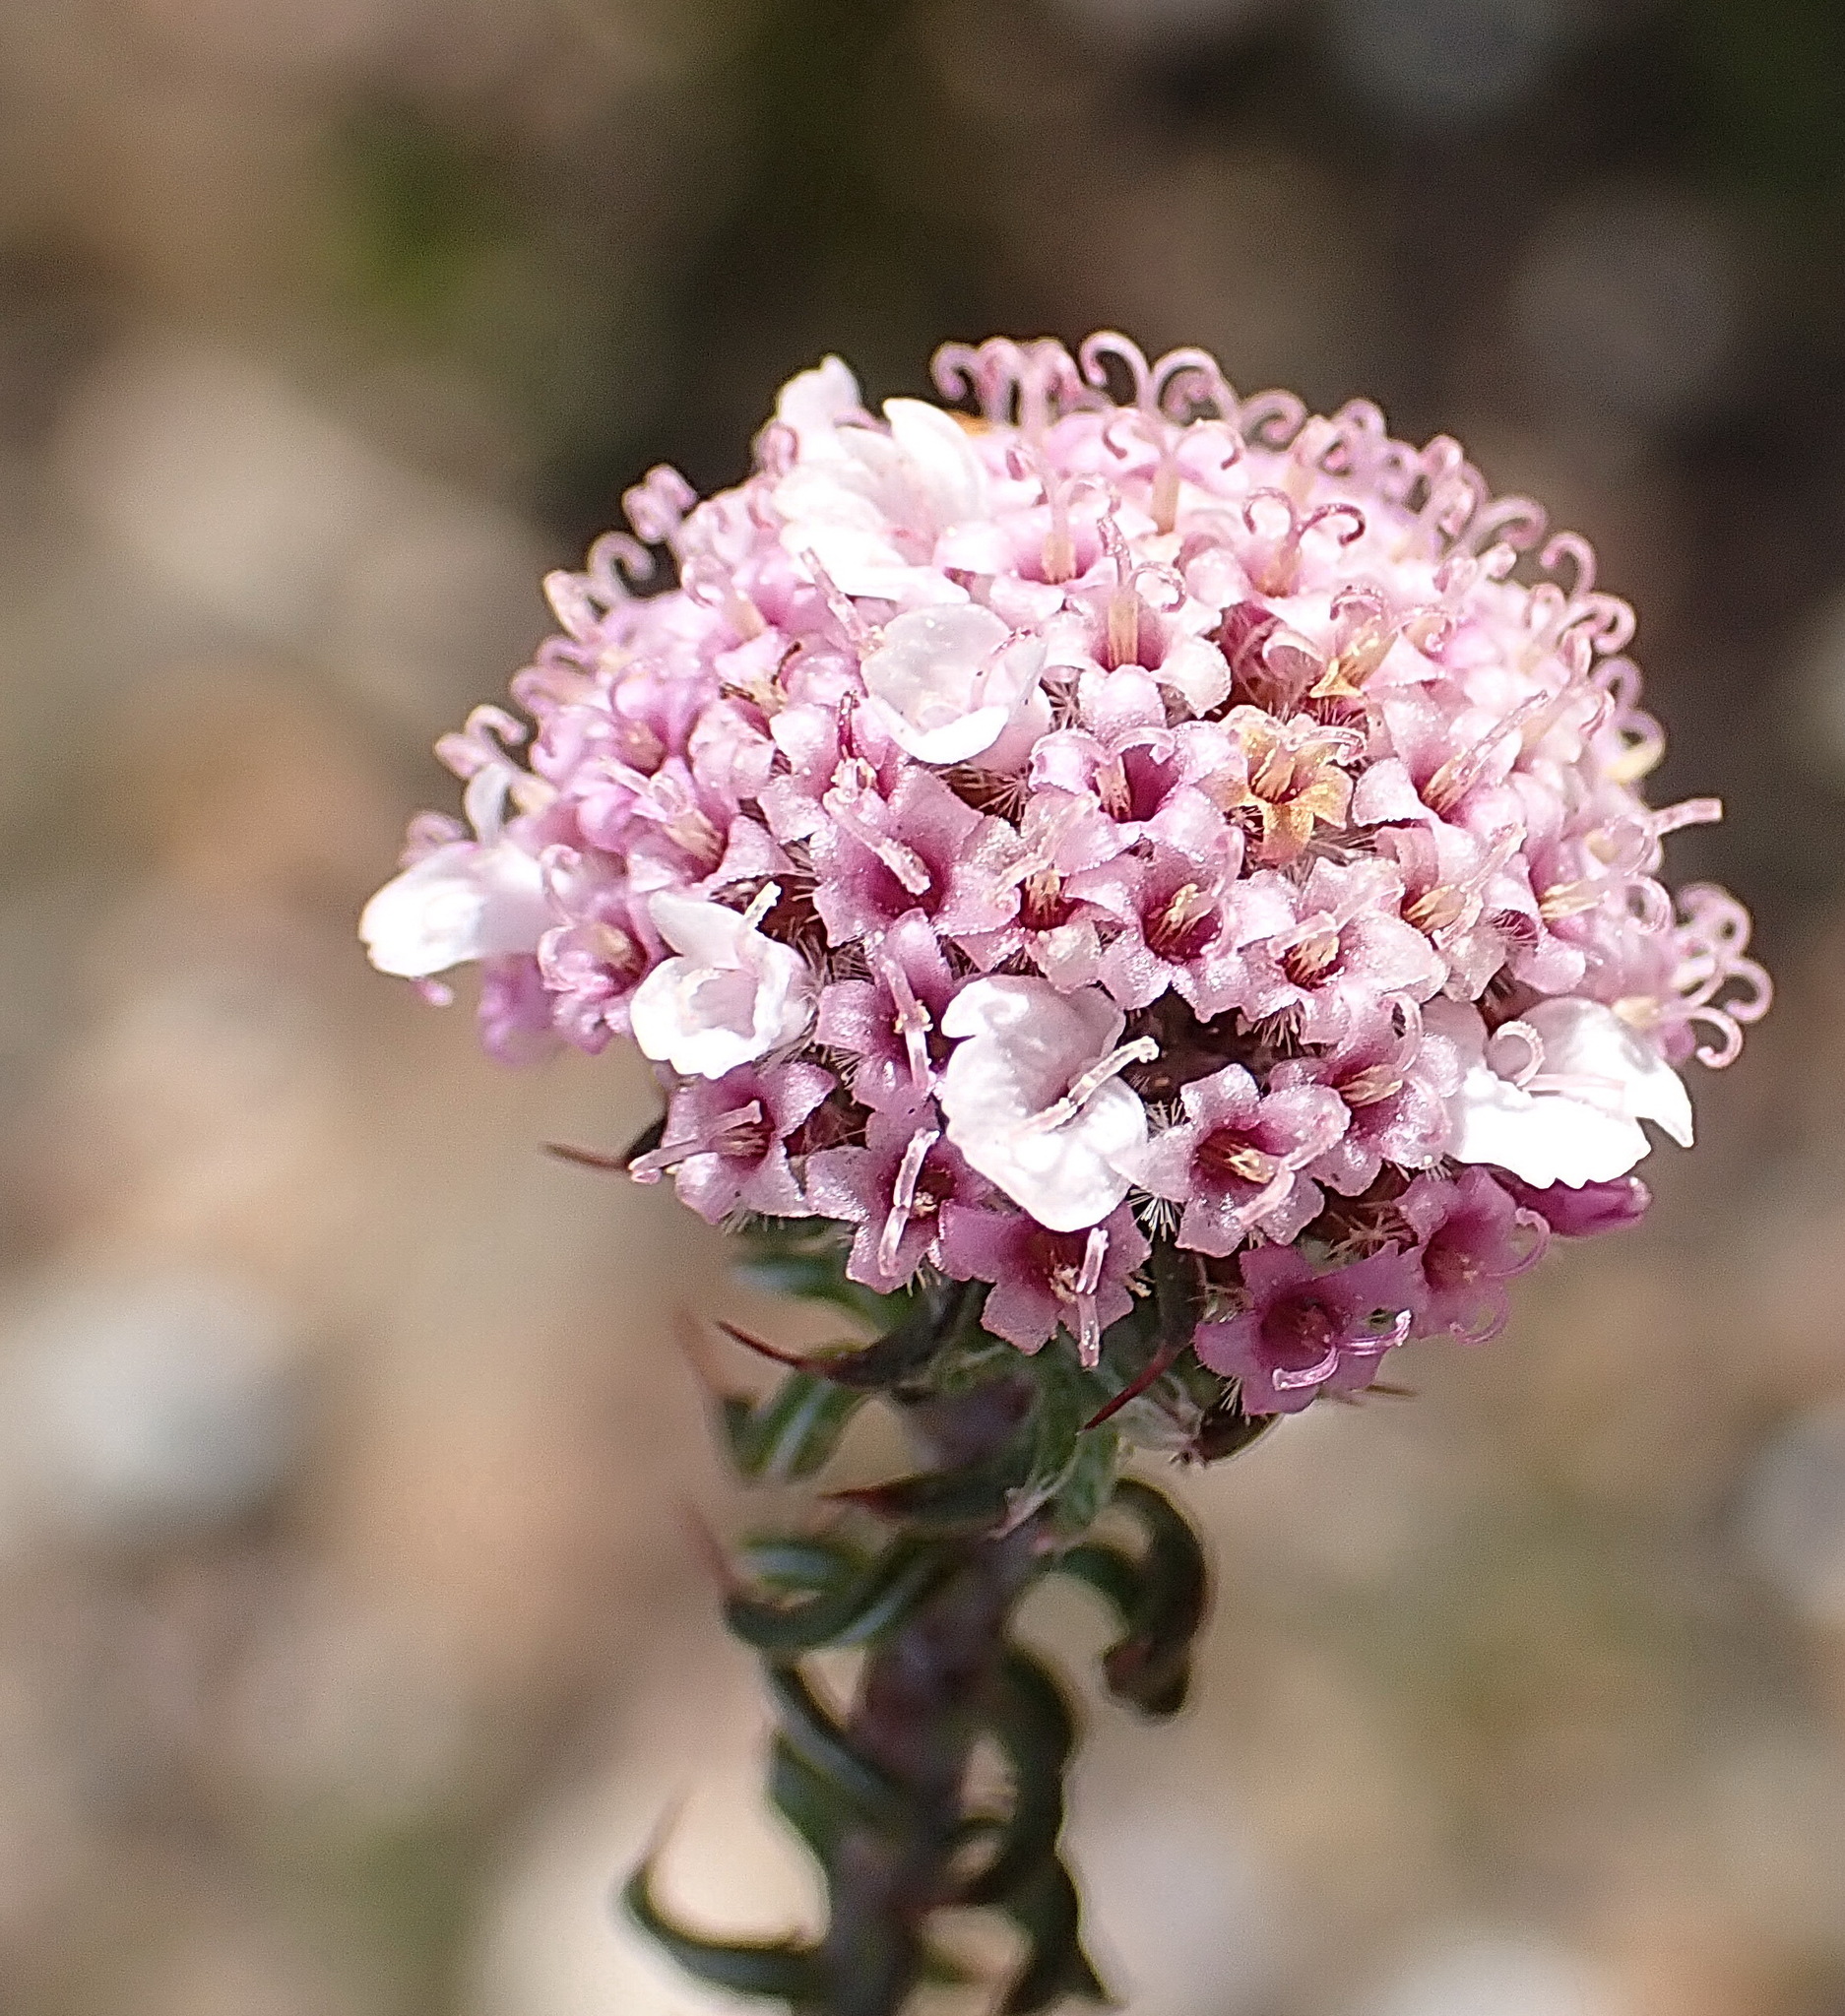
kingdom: Plantae
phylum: Tracheophyta
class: Magnoliopsida
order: Asterales
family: Asteraceae
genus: Disparago
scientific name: Disparago tortilis
